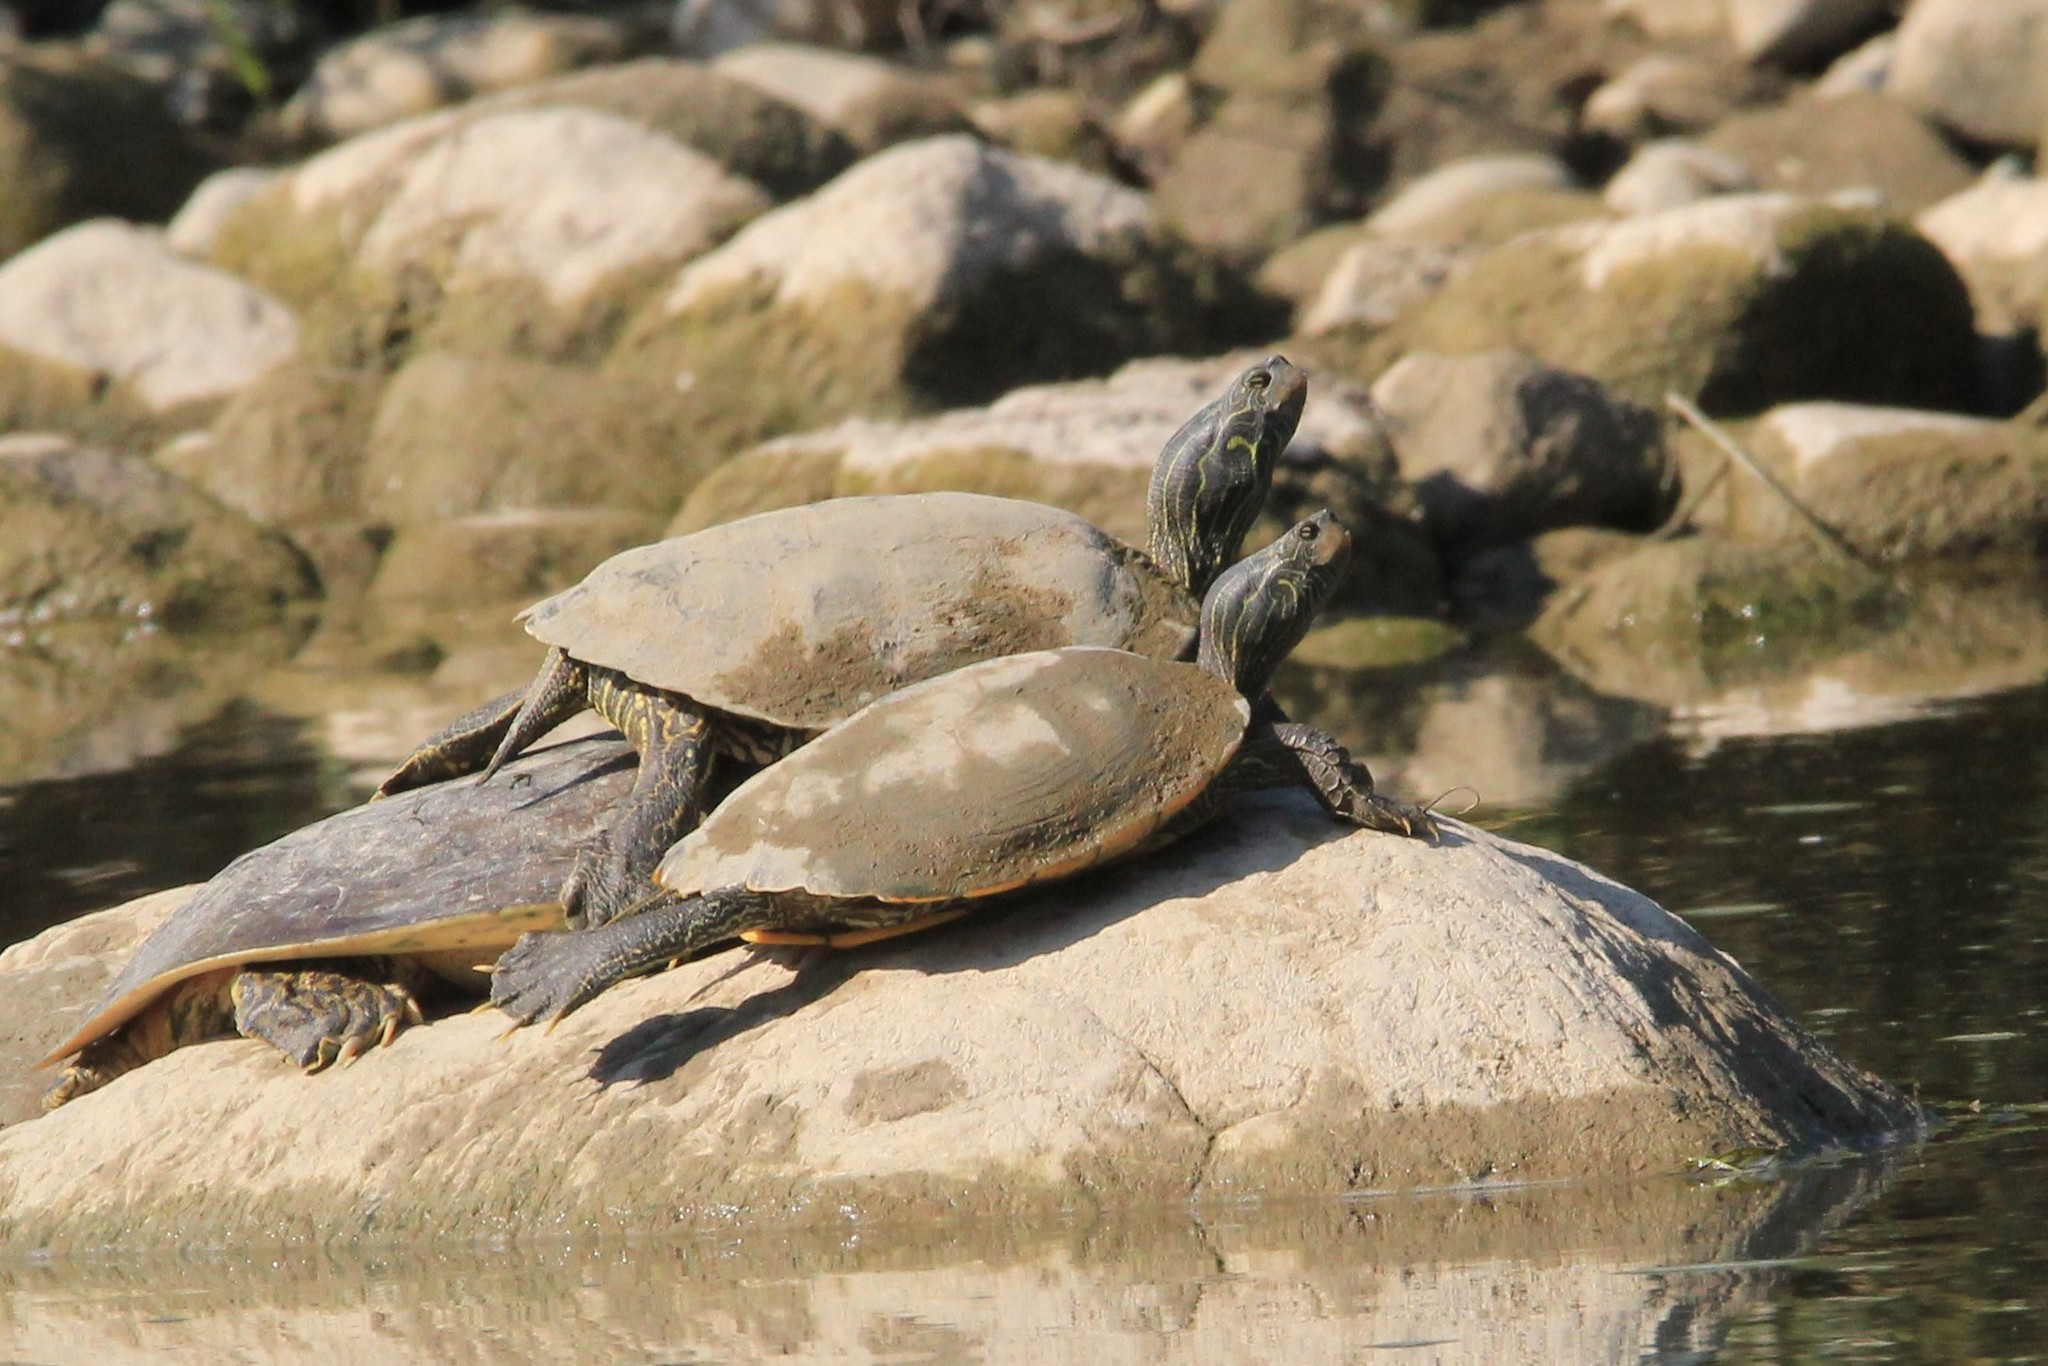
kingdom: Animalia
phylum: Chordata
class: Testudines
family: Emydidae
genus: Graptemys
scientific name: Graptemys geographica
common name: Common map turtle
